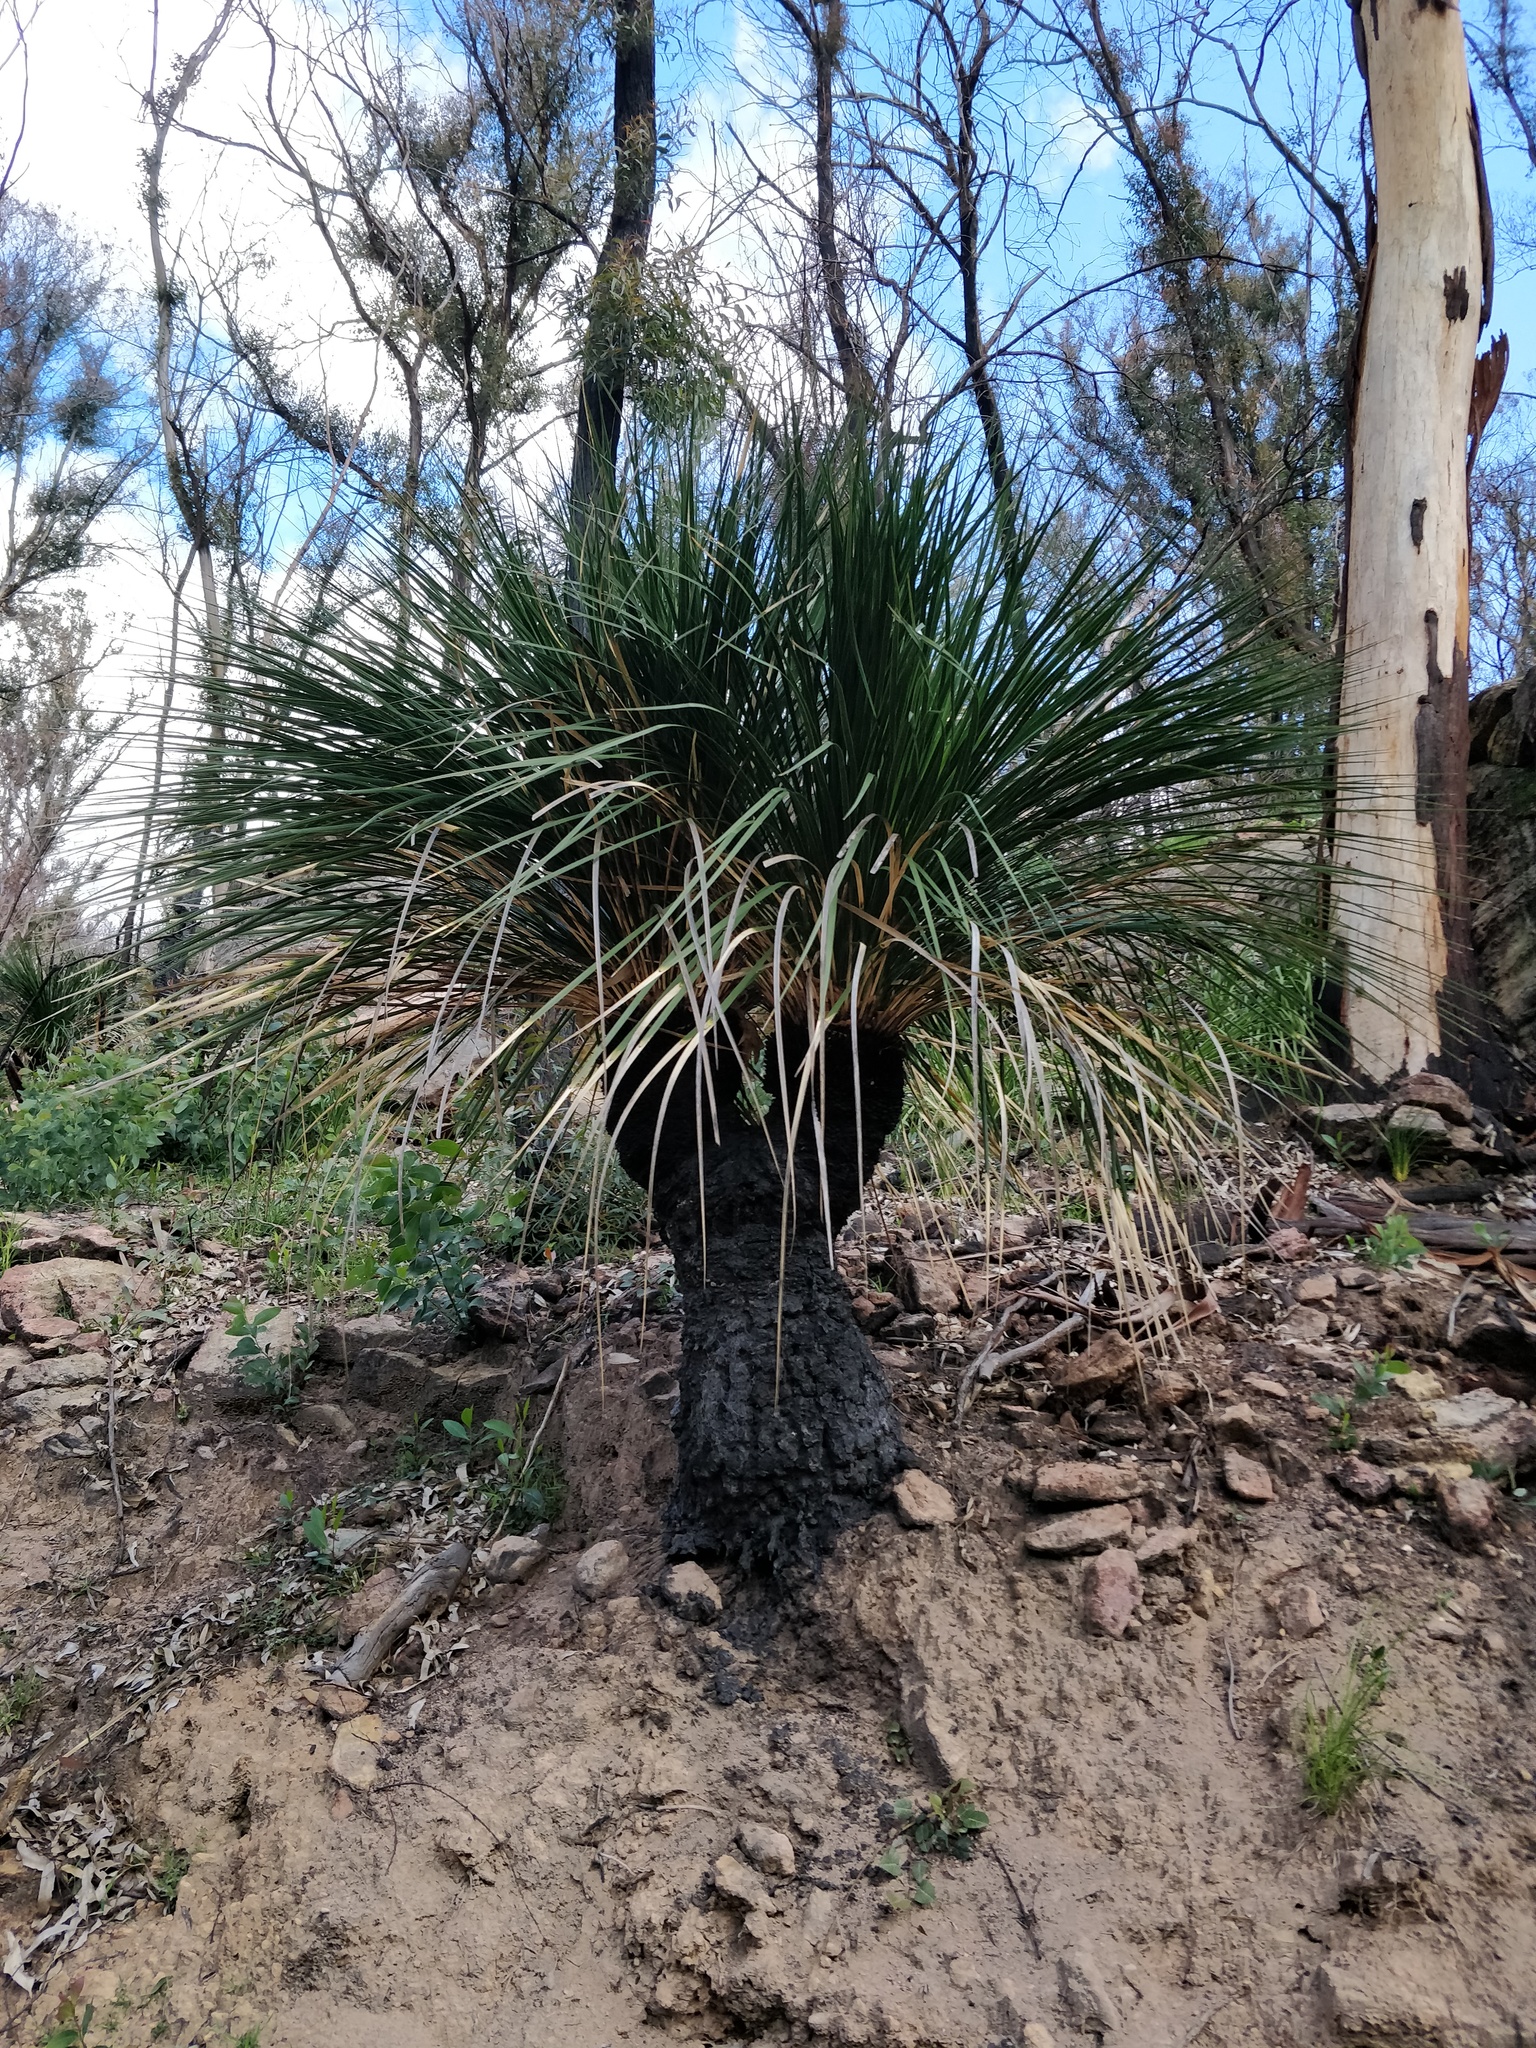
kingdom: Plantae
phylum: Tracheophyta
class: Liliopsida
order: Asparagales
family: Asphodelaceae
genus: Xanthorrhoea
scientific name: Xanthorrhoea arborea
